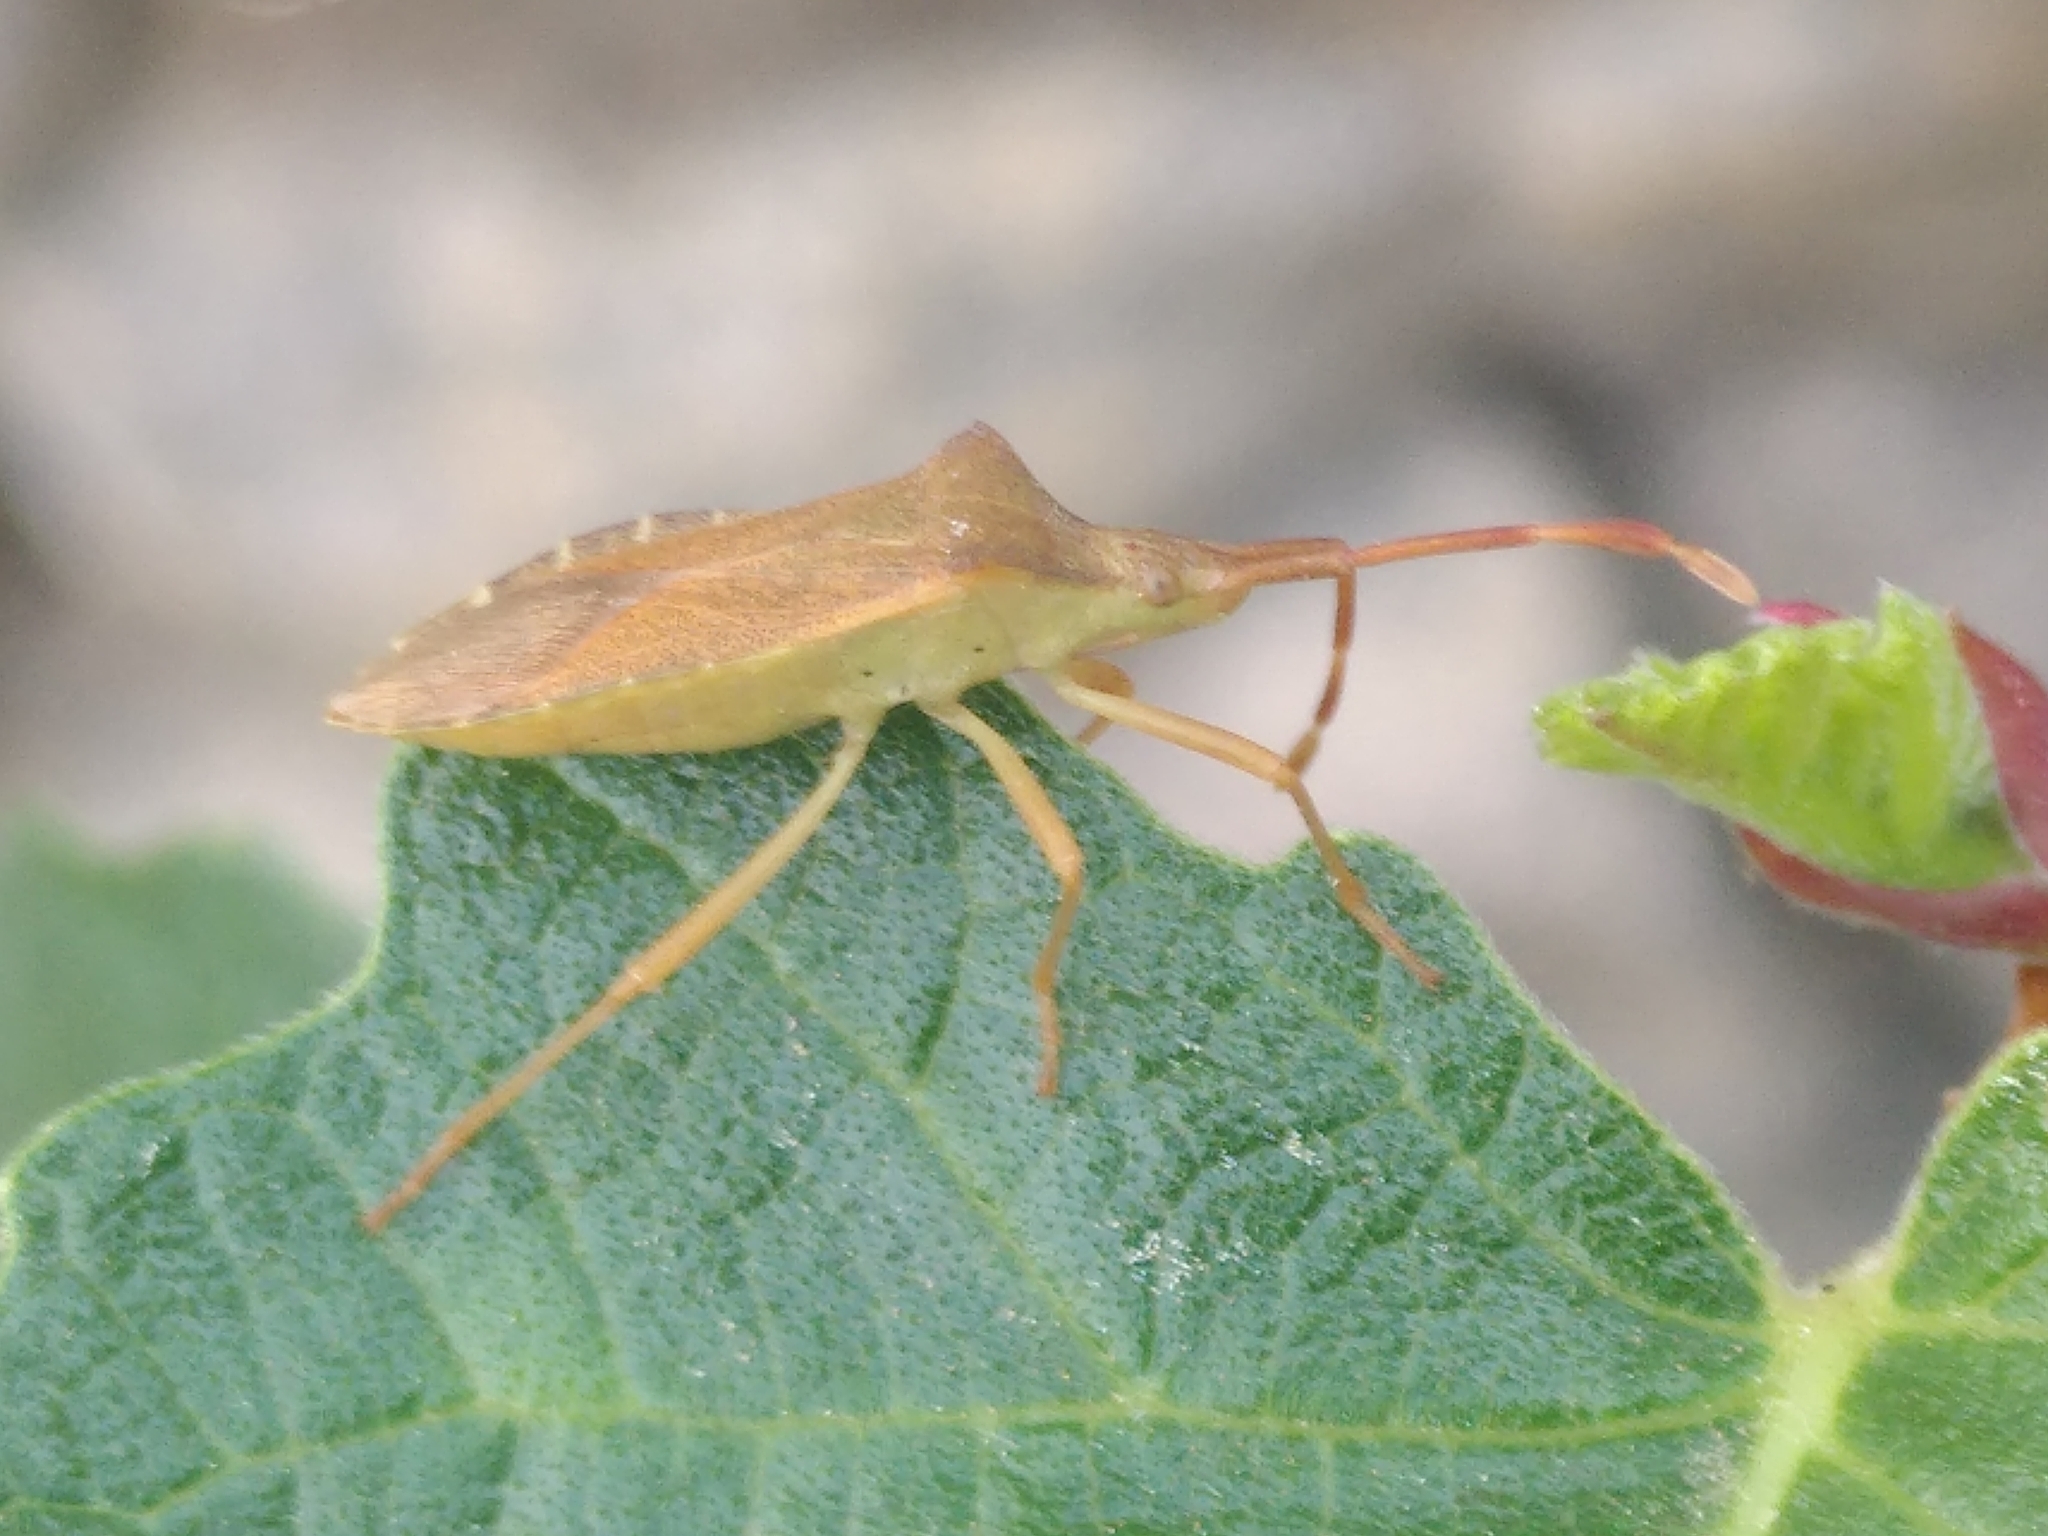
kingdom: Animalia
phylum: Arthropoda
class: Insecta
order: Hemiptera
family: Coreidae
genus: Gonocerus
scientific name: Gonocerus acuteangulatus
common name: Box bug
